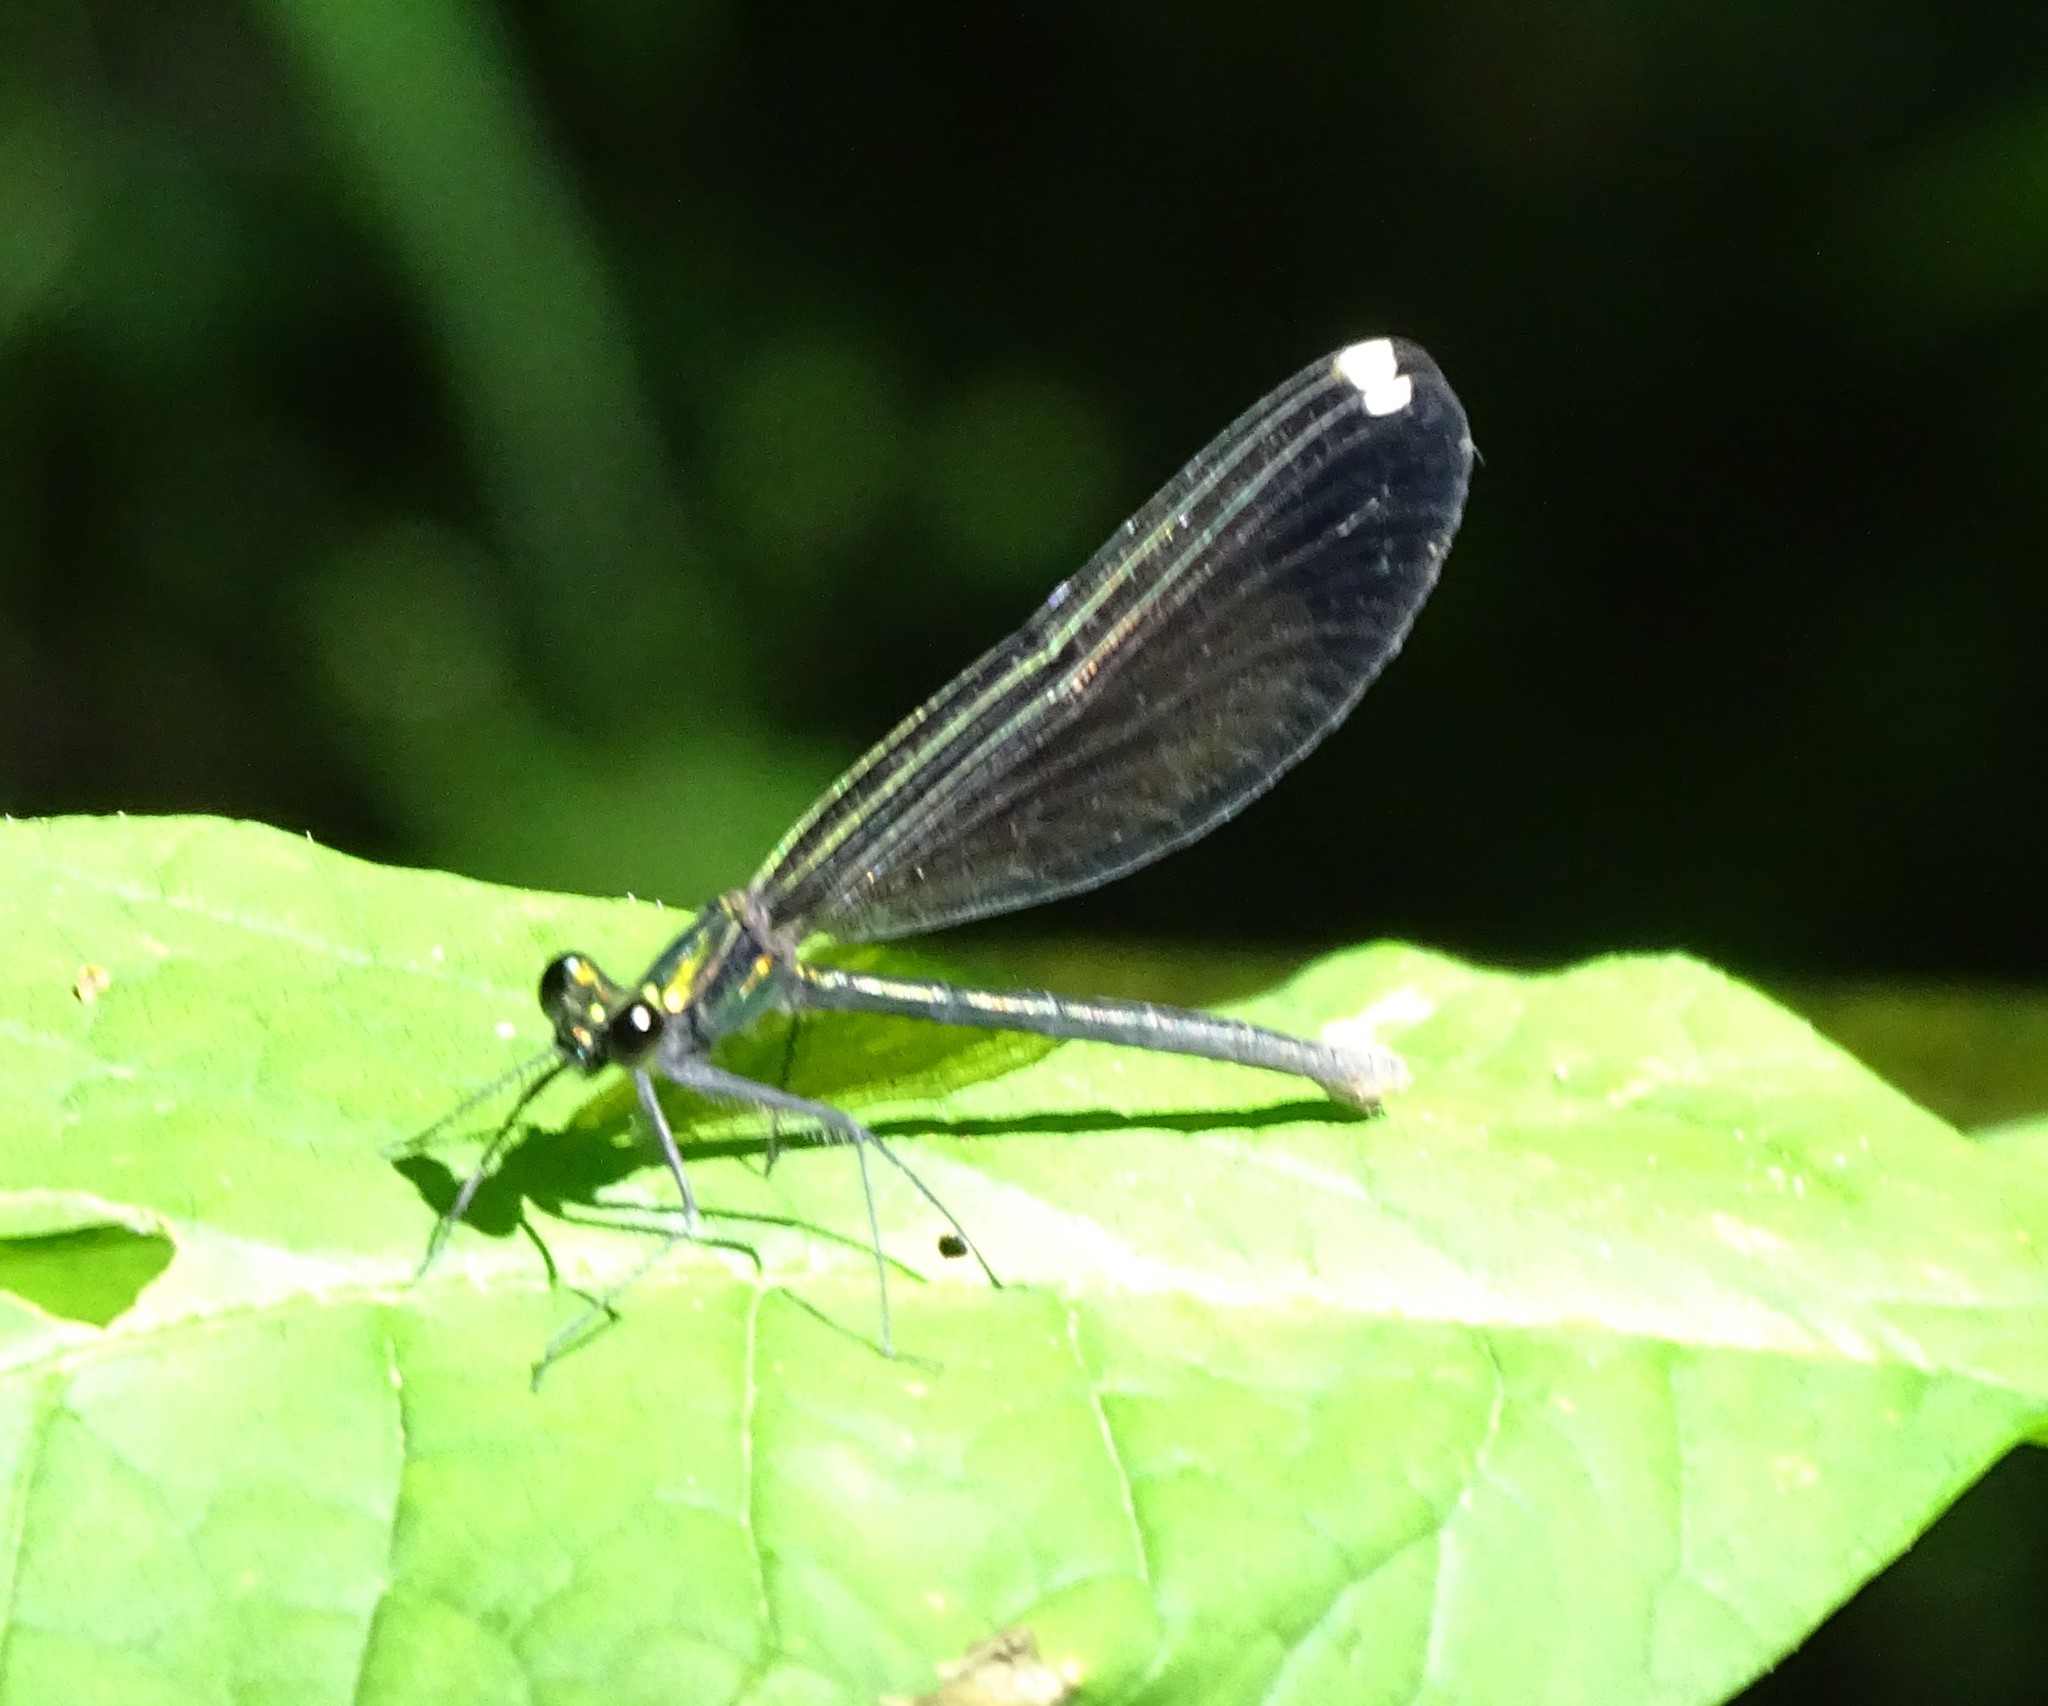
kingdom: Animalia
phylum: Arthropoda
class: Insecta
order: Odonata
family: Calopterygidae
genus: Calopteryx
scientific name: Calopteryx maculata
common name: Ebony jewelwing
